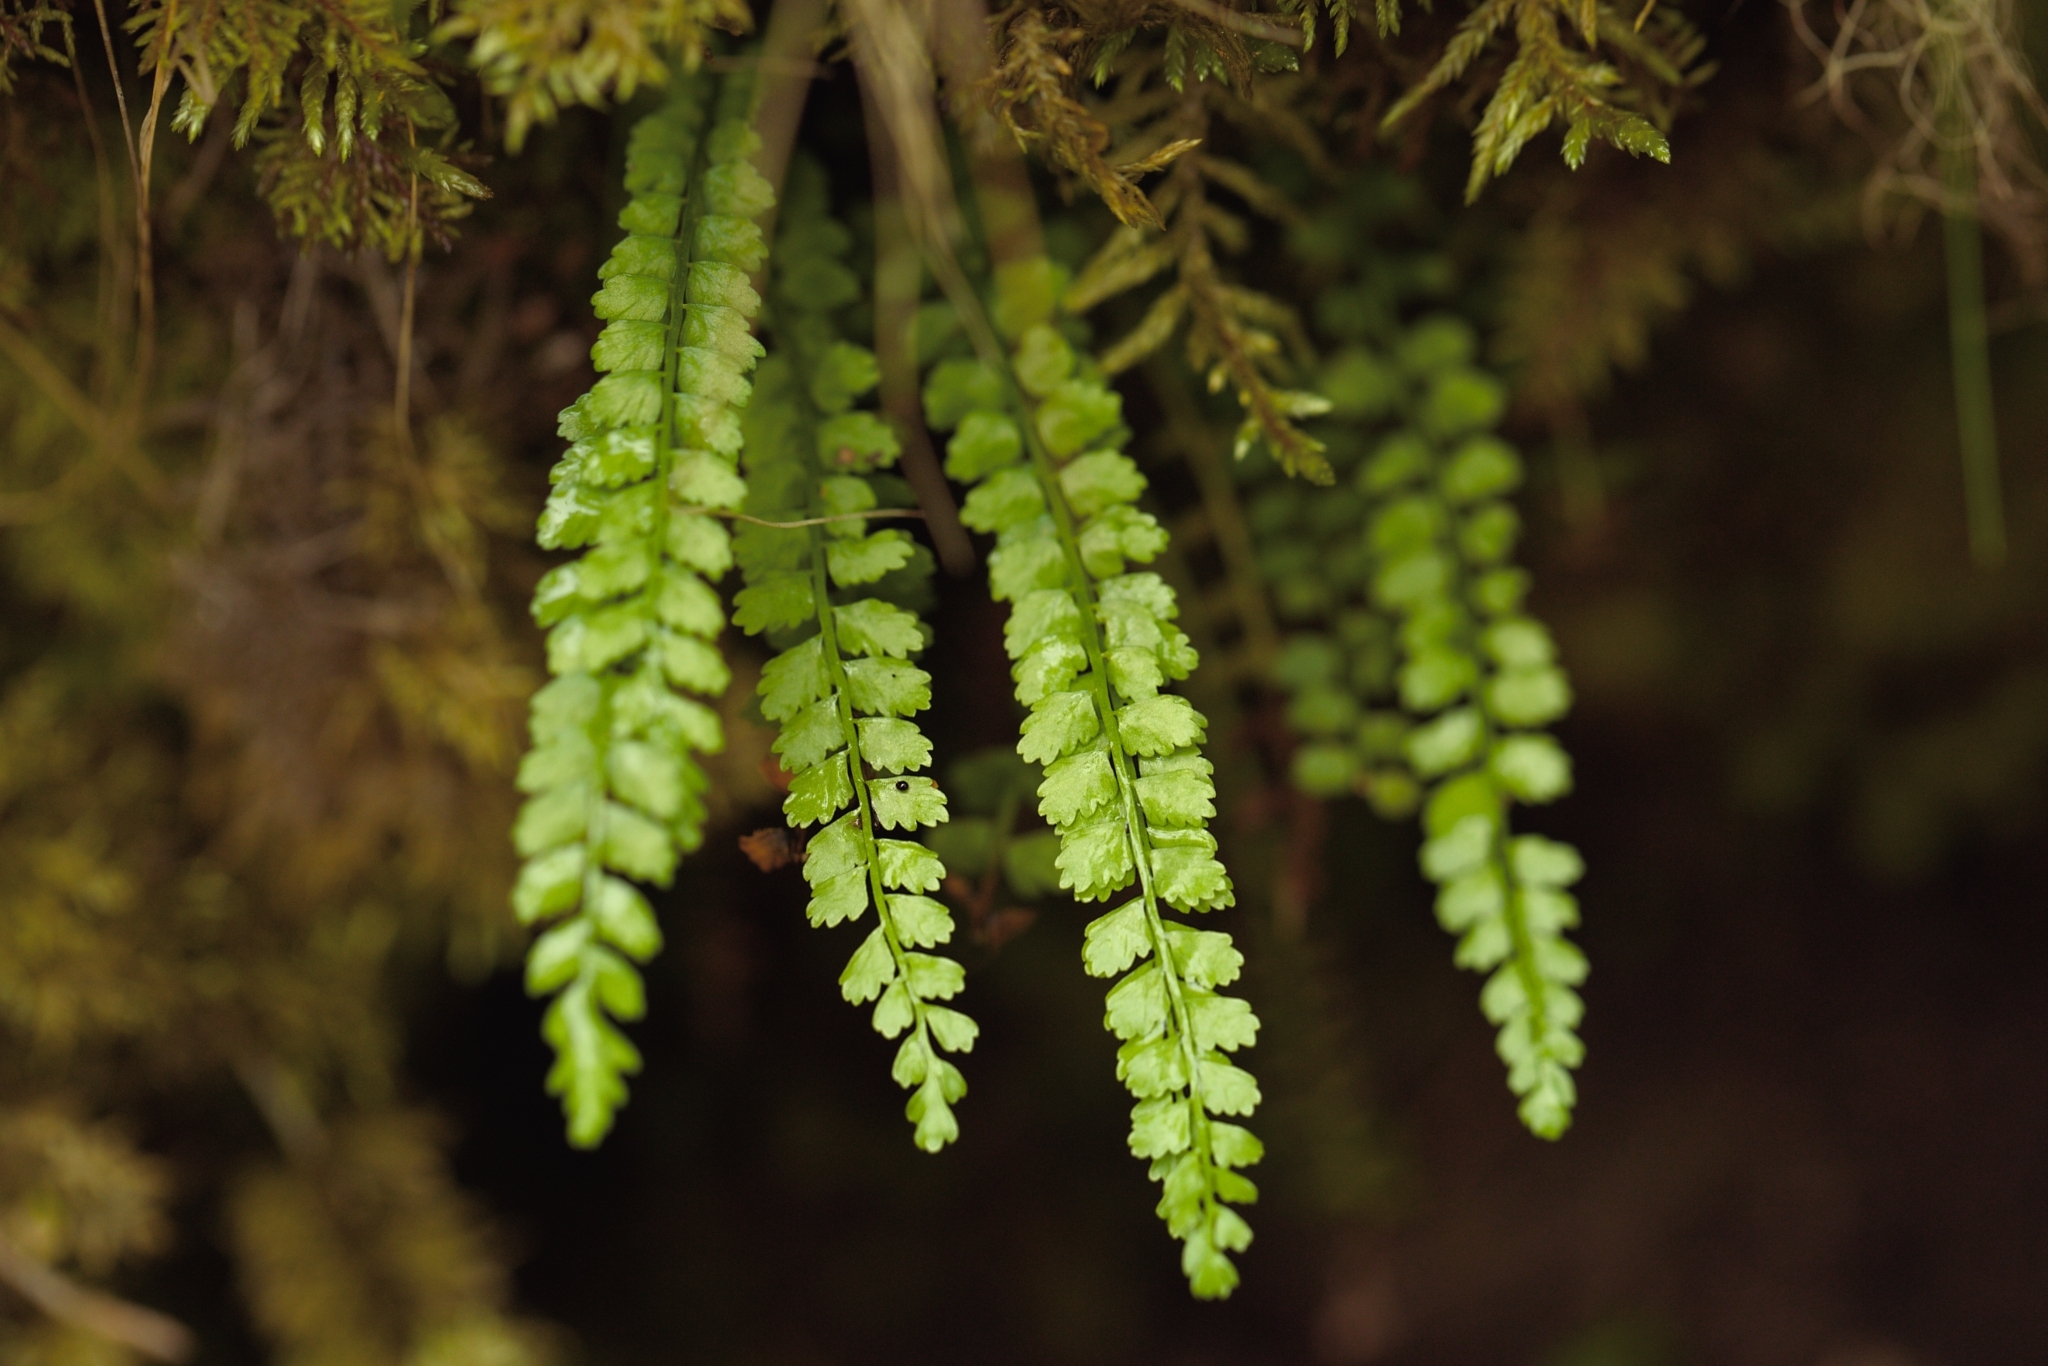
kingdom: Plantae
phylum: Tracheophyta
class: Polypodiopsida
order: Polypodiales
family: Aspleniaceae
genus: Asplenium
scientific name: Asplenium viride
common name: Green spleenwort
